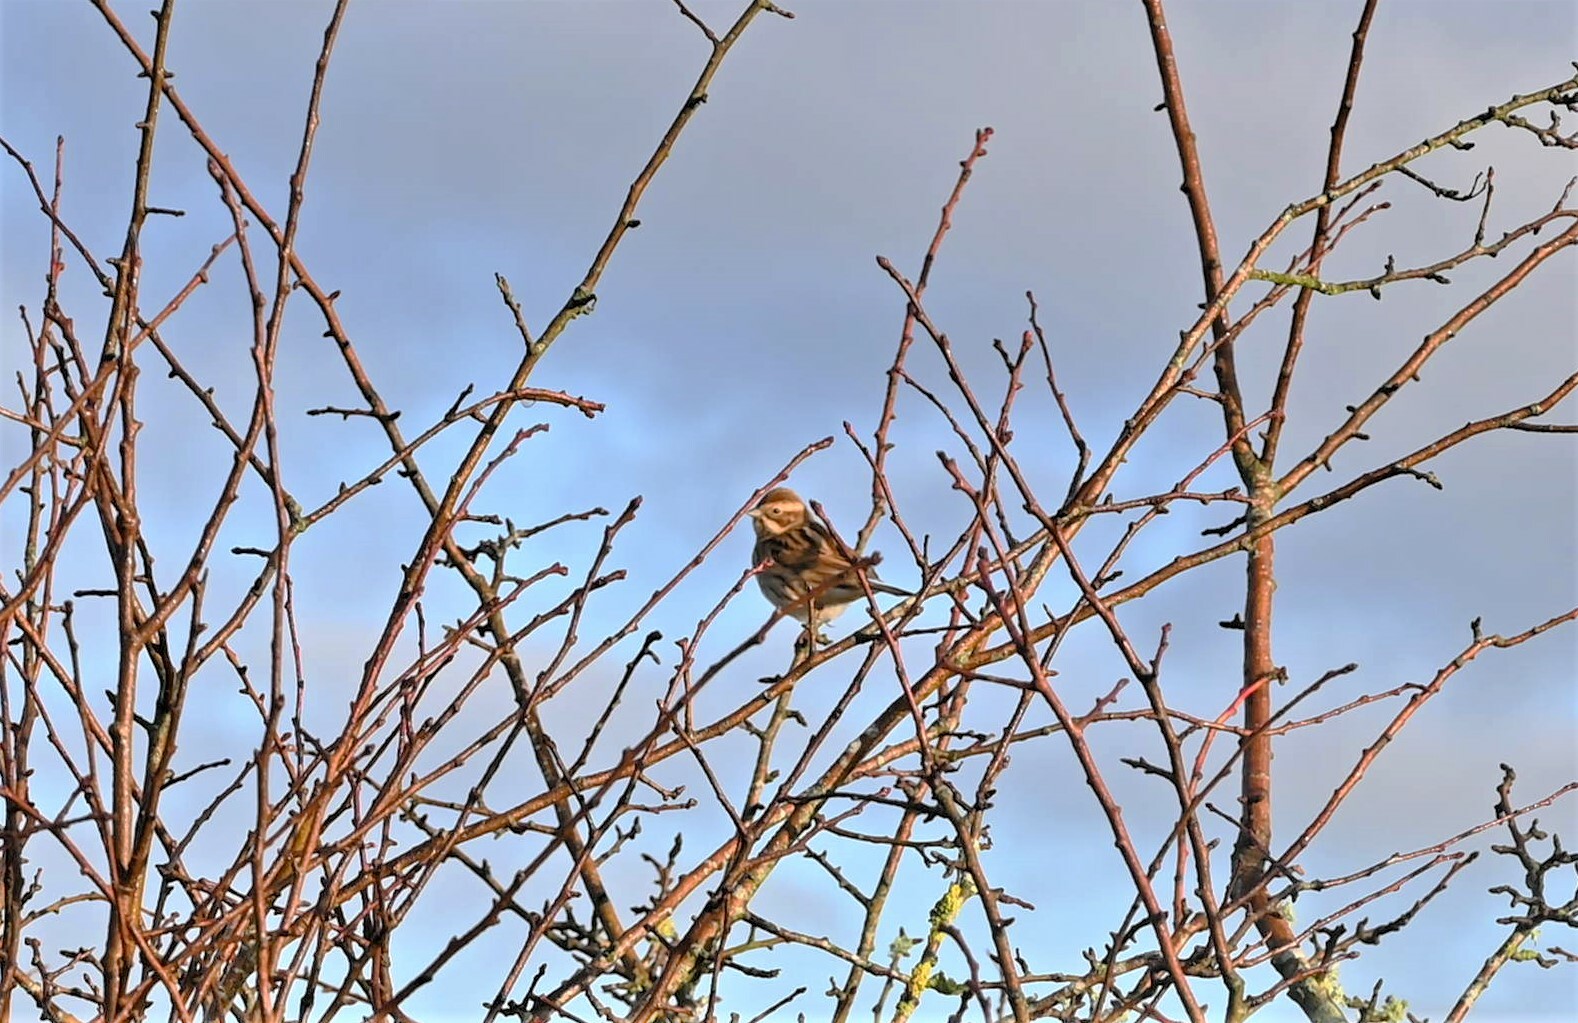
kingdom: Animalia
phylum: Chordata
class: Aves
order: Passeriformes
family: Emberizidae
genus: Emberiza
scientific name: Emberiza schoeniclus
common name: Reed bunting
